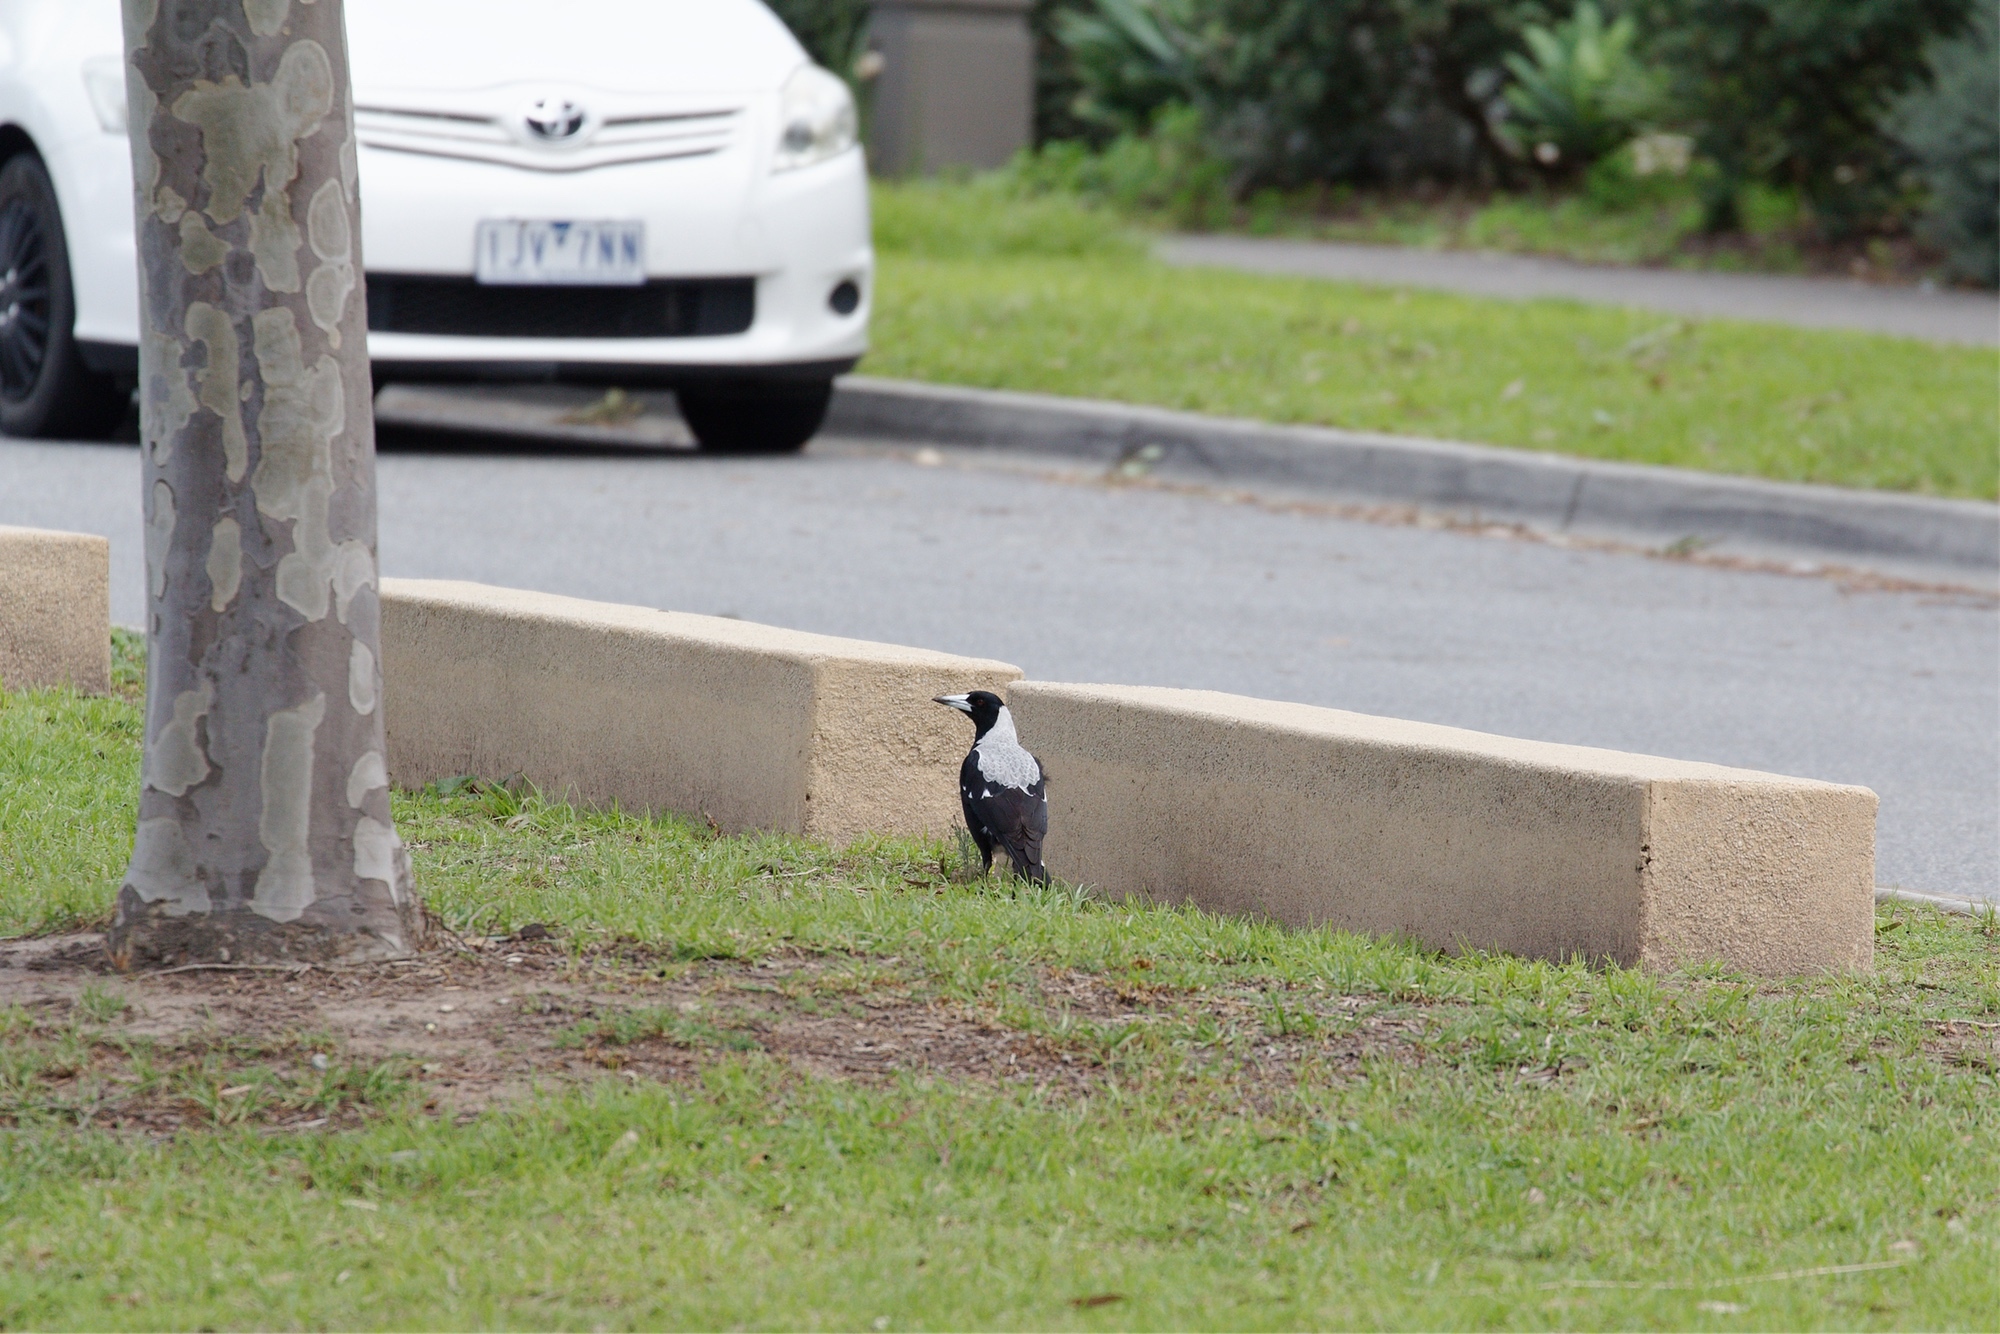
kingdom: Animalia
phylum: Chordata
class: Aves
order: Passeriformes
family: Cracticidae
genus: Gymnorhina
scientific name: Gymnorhina tibicen
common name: Australian magpie
